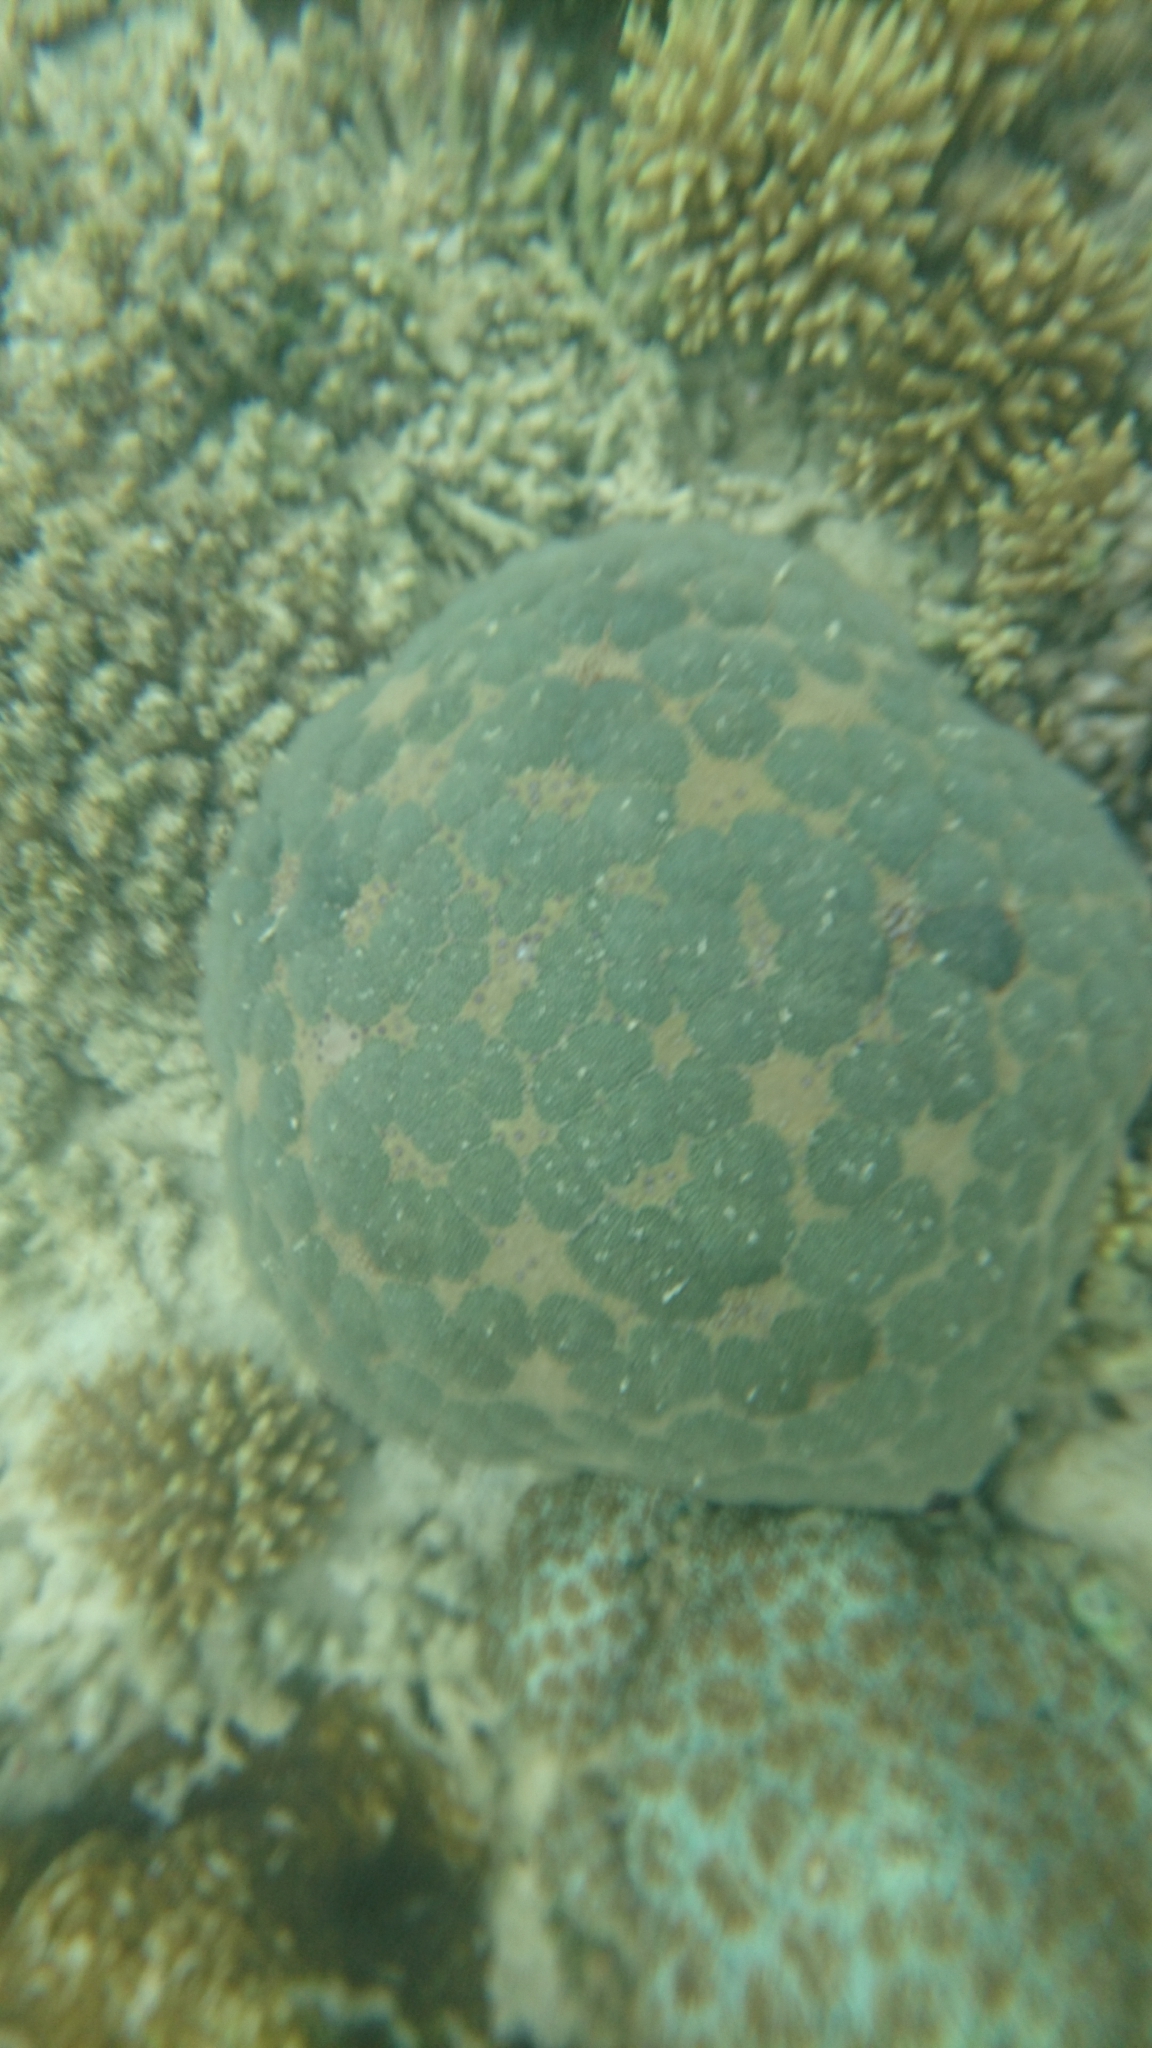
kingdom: Animalia
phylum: Echinodermata
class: Asteroidea
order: Valvatida
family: Oreasteridae
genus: Culcita
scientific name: Culcita novaeguineae
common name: Cushion star
